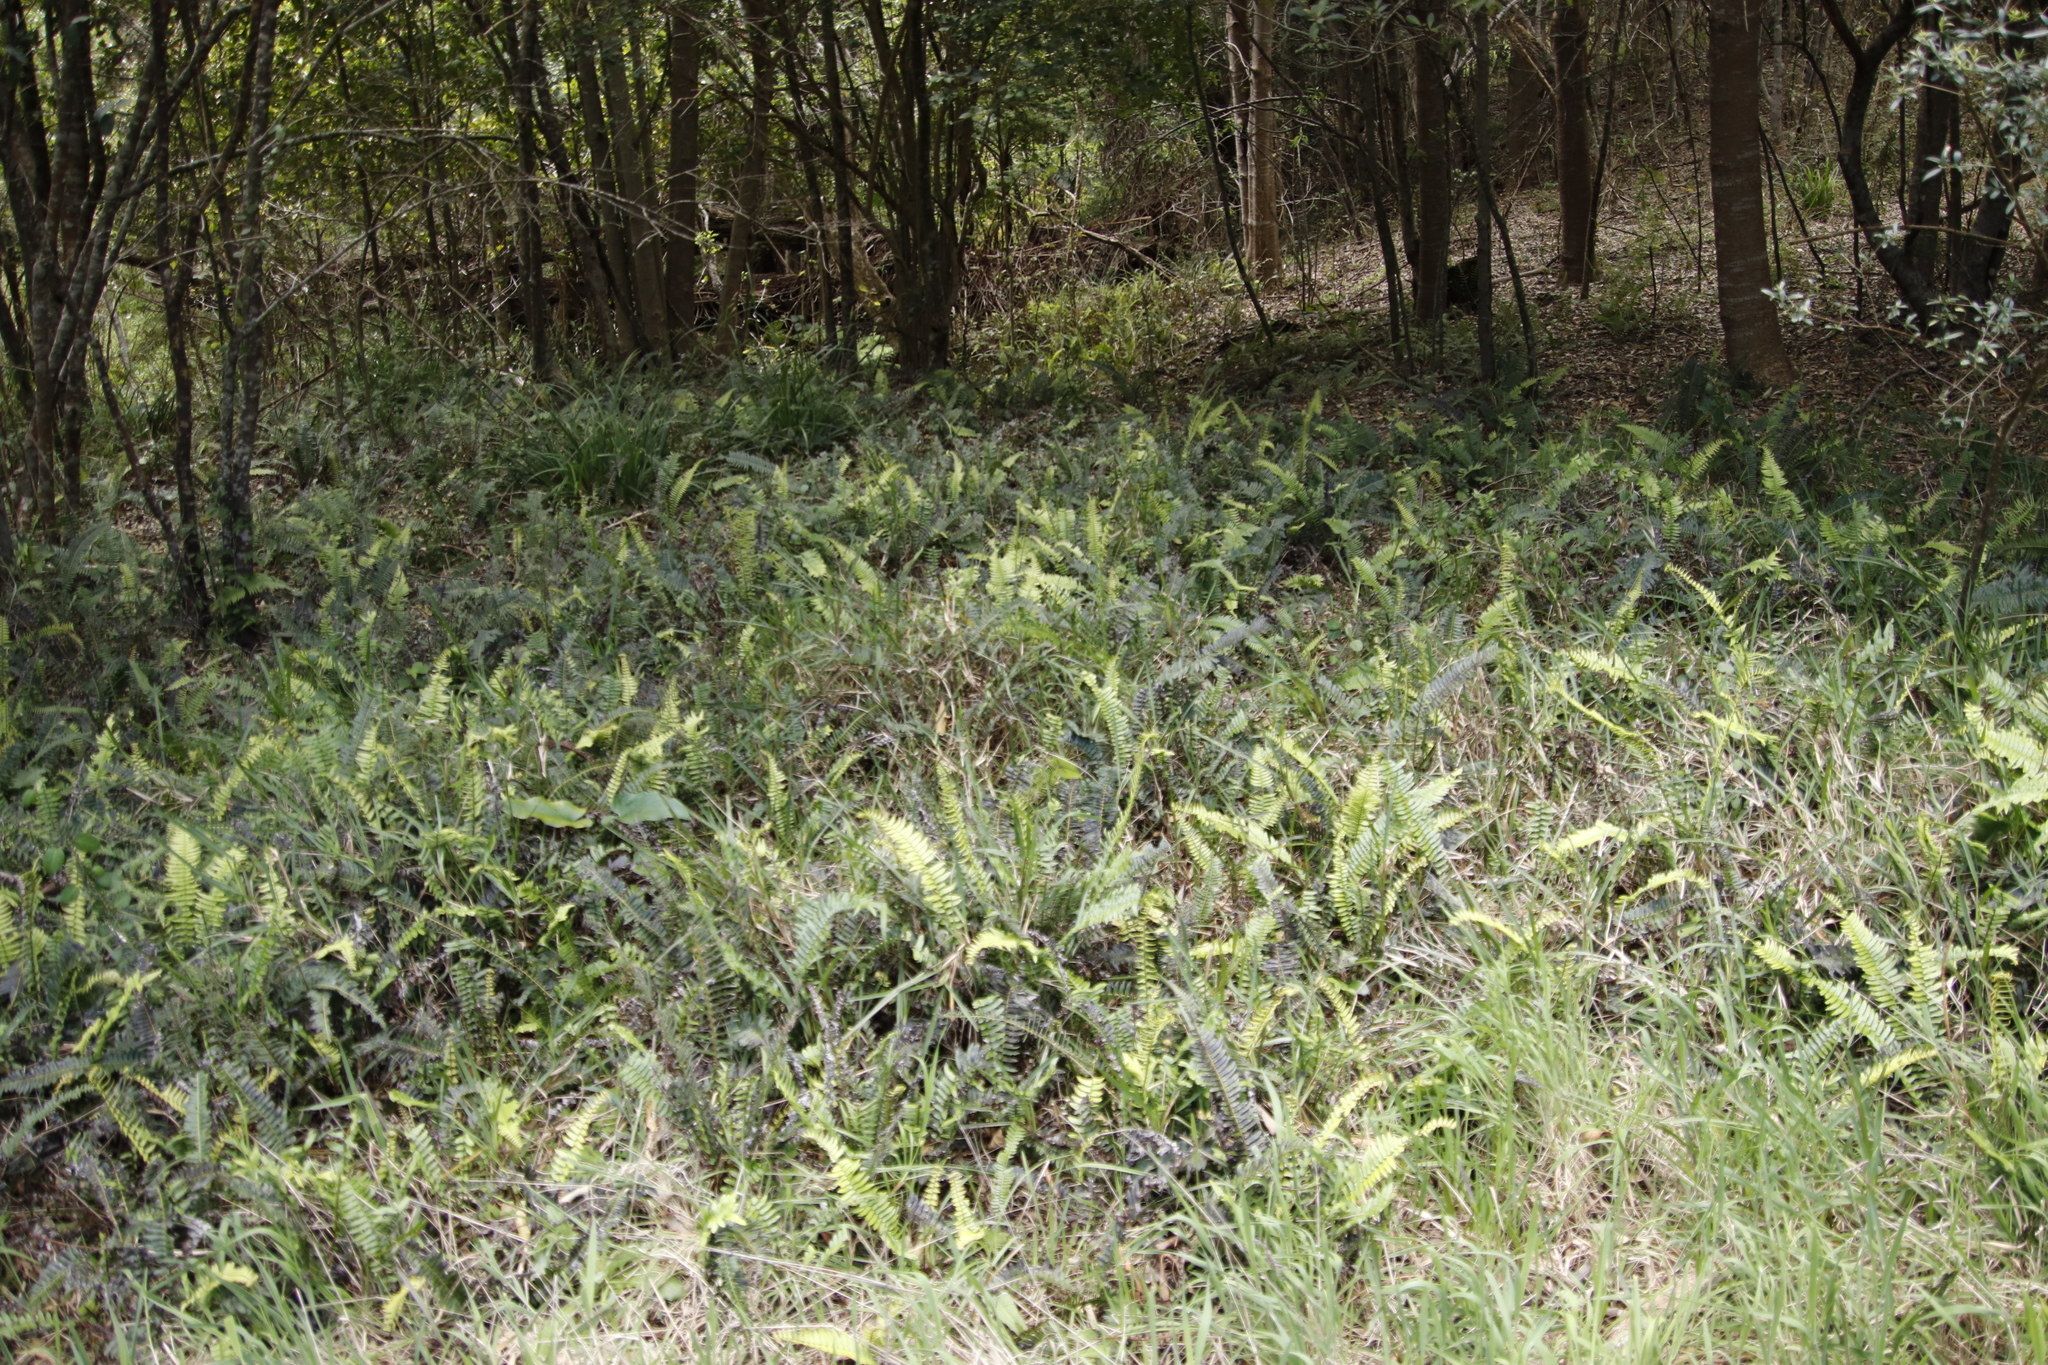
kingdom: Plantae
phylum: Tracheophyta
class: Polypodiopsida
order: Polypodiales
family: Blechnaceae
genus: Blechnum
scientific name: Blechnum punctulatum
